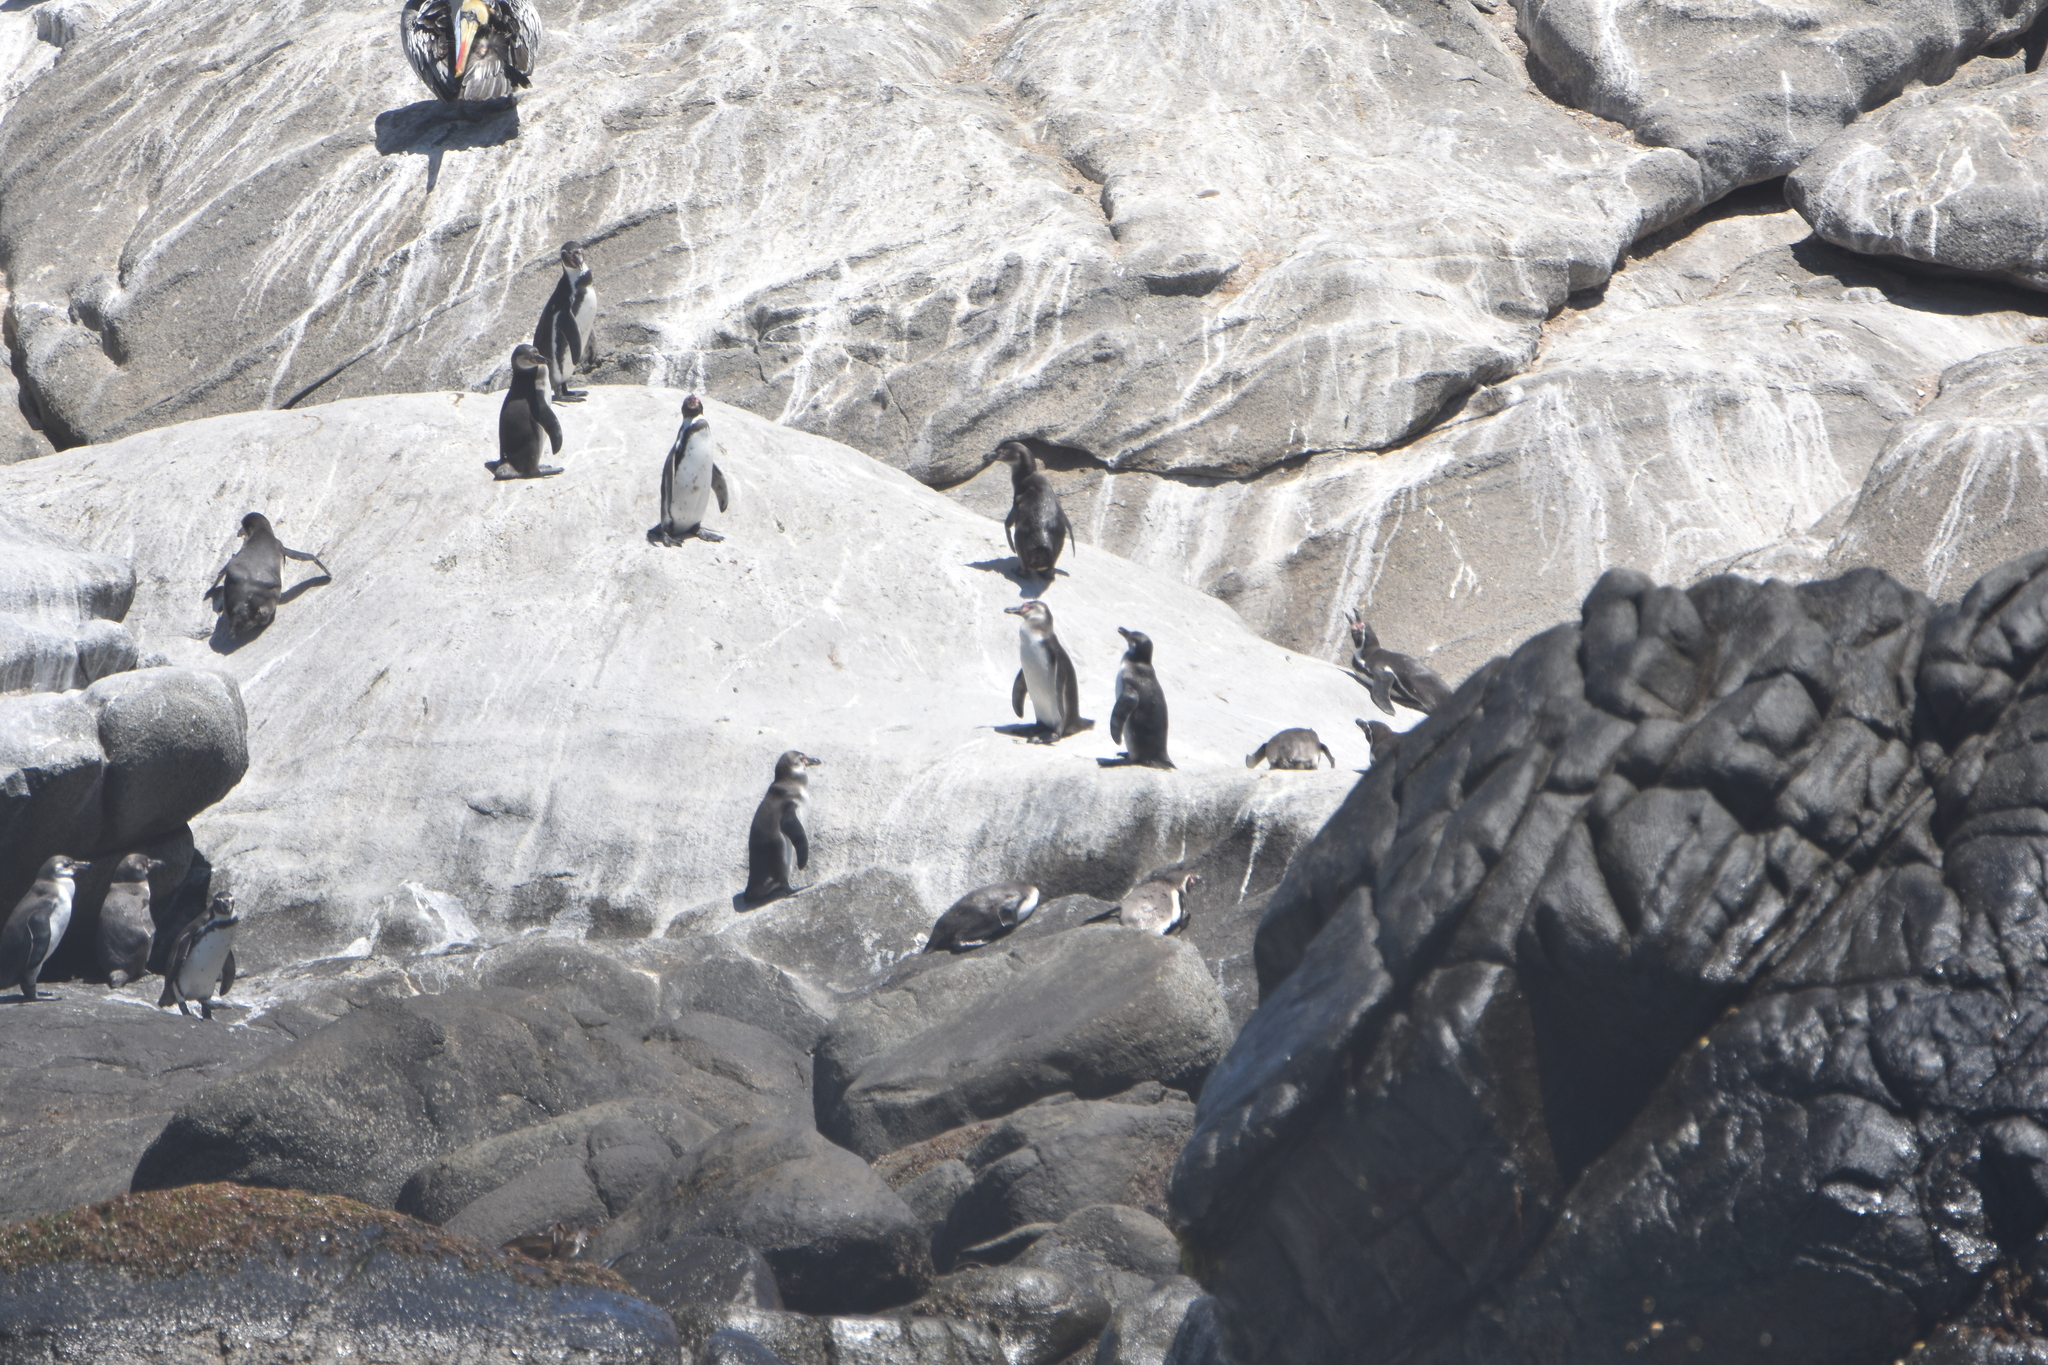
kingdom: Animalia
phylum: Chordata
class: Aves
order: Sphenisciformes
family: Spheniscidae
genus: Spheniscus
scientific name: Spheniscus humboldti
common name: Humboldt penguin
